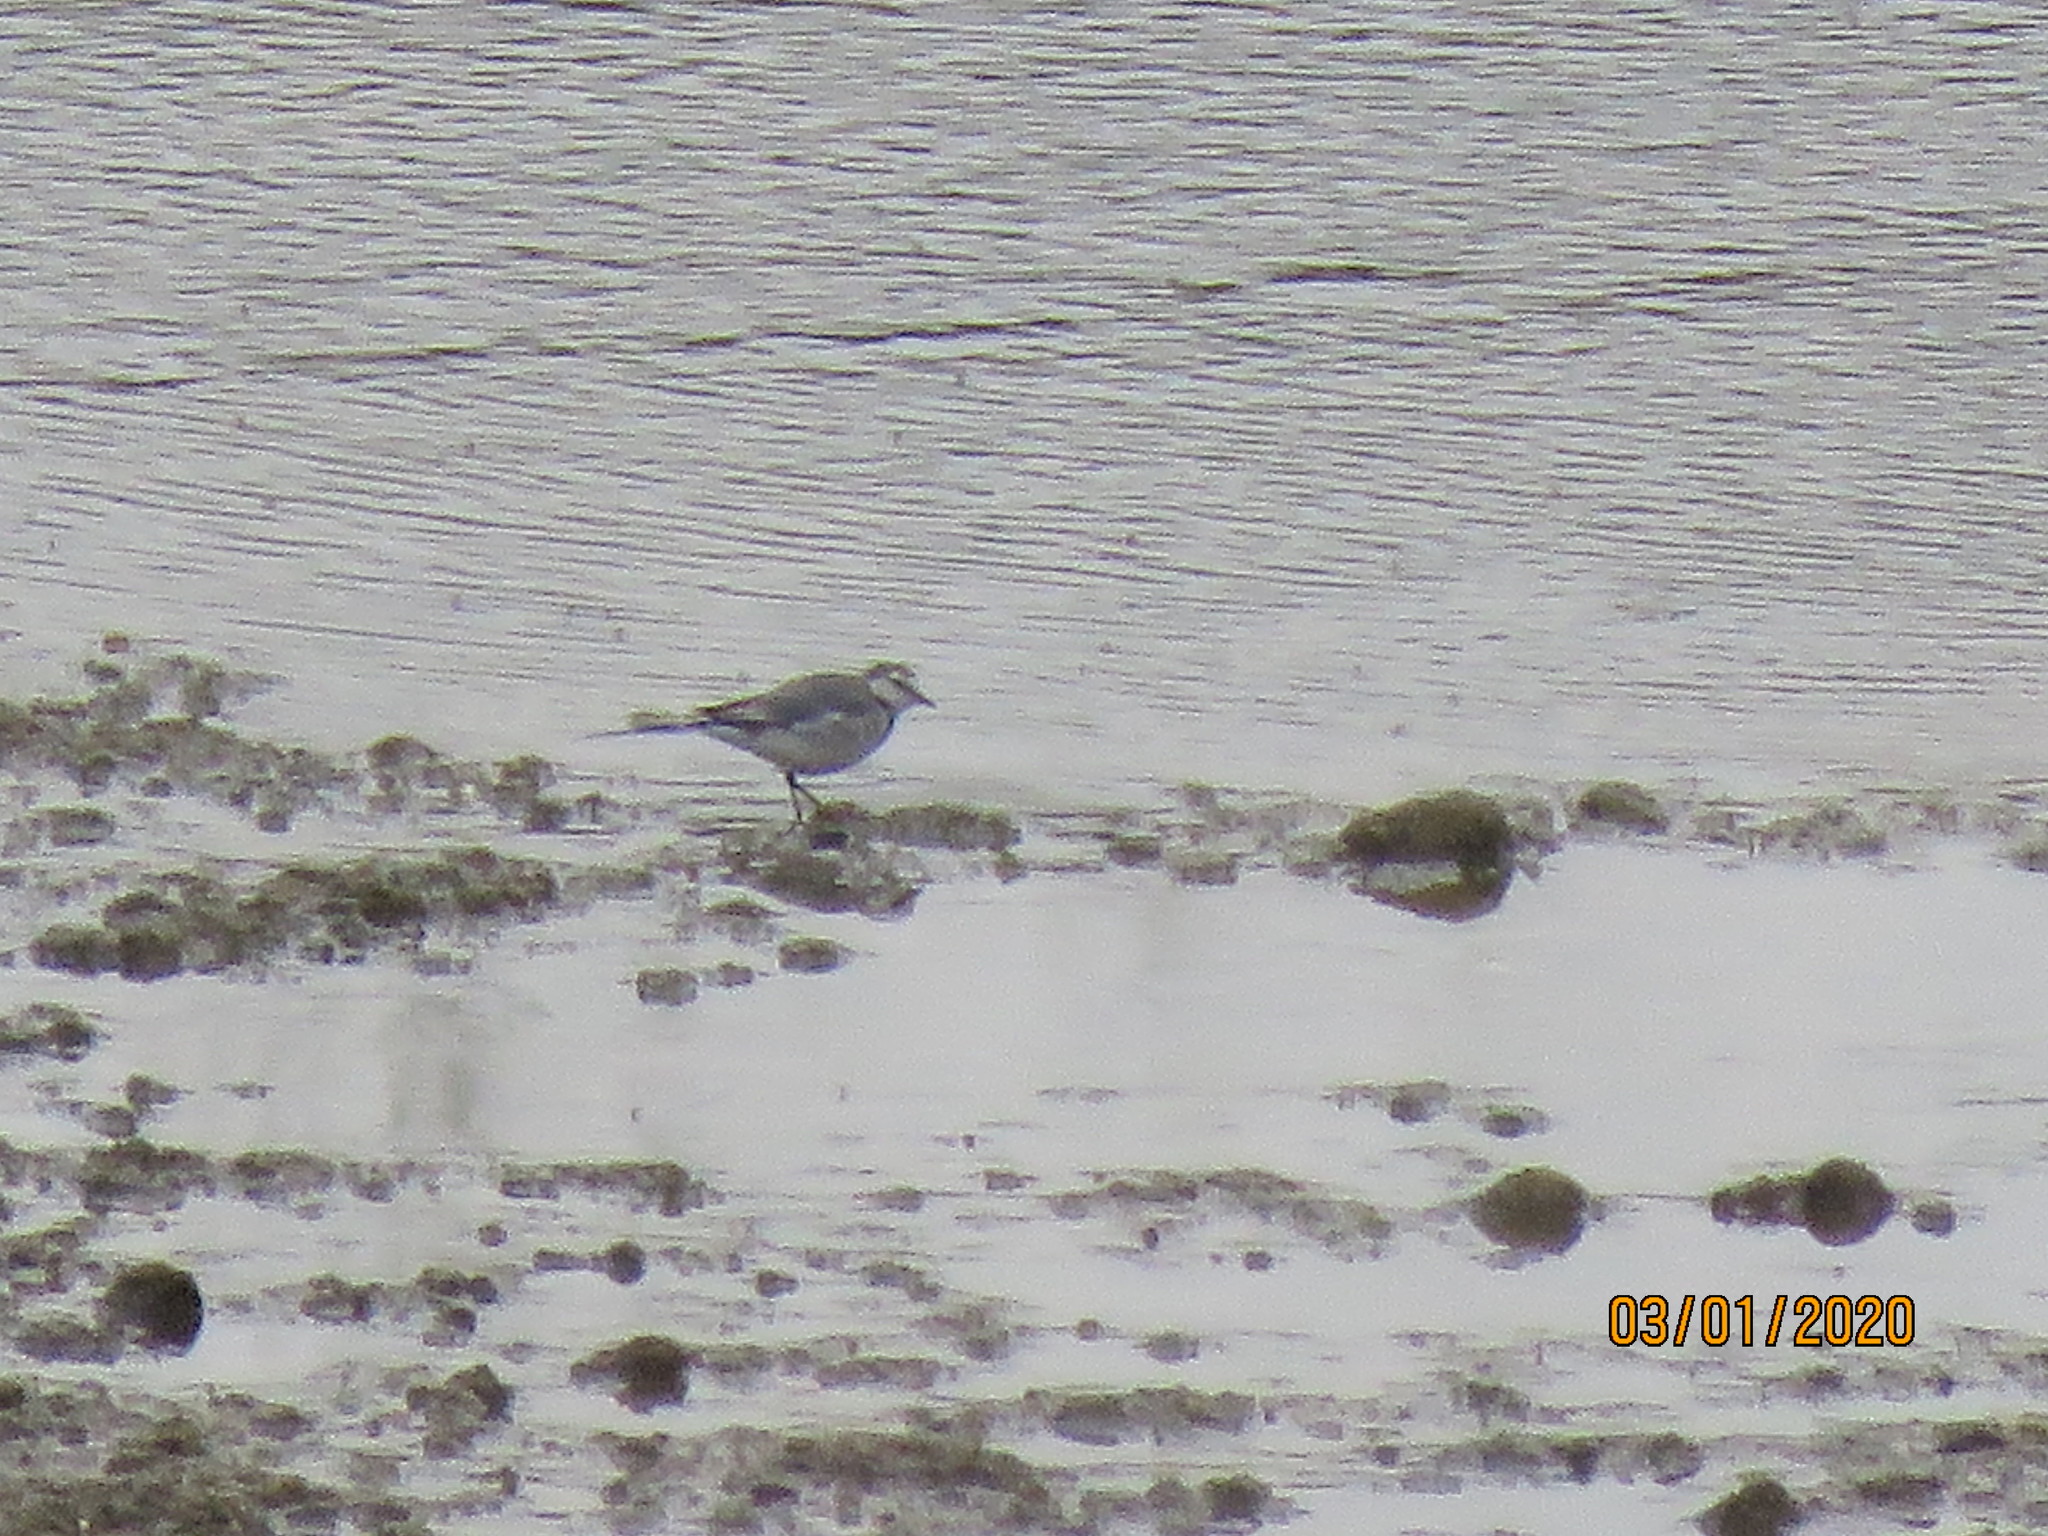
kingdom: Animalia
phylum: Chordata
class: Aves
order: Passeriformes
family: Motacillidae
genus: Motacilla
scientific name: Motacilla alba
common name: White wagtail
